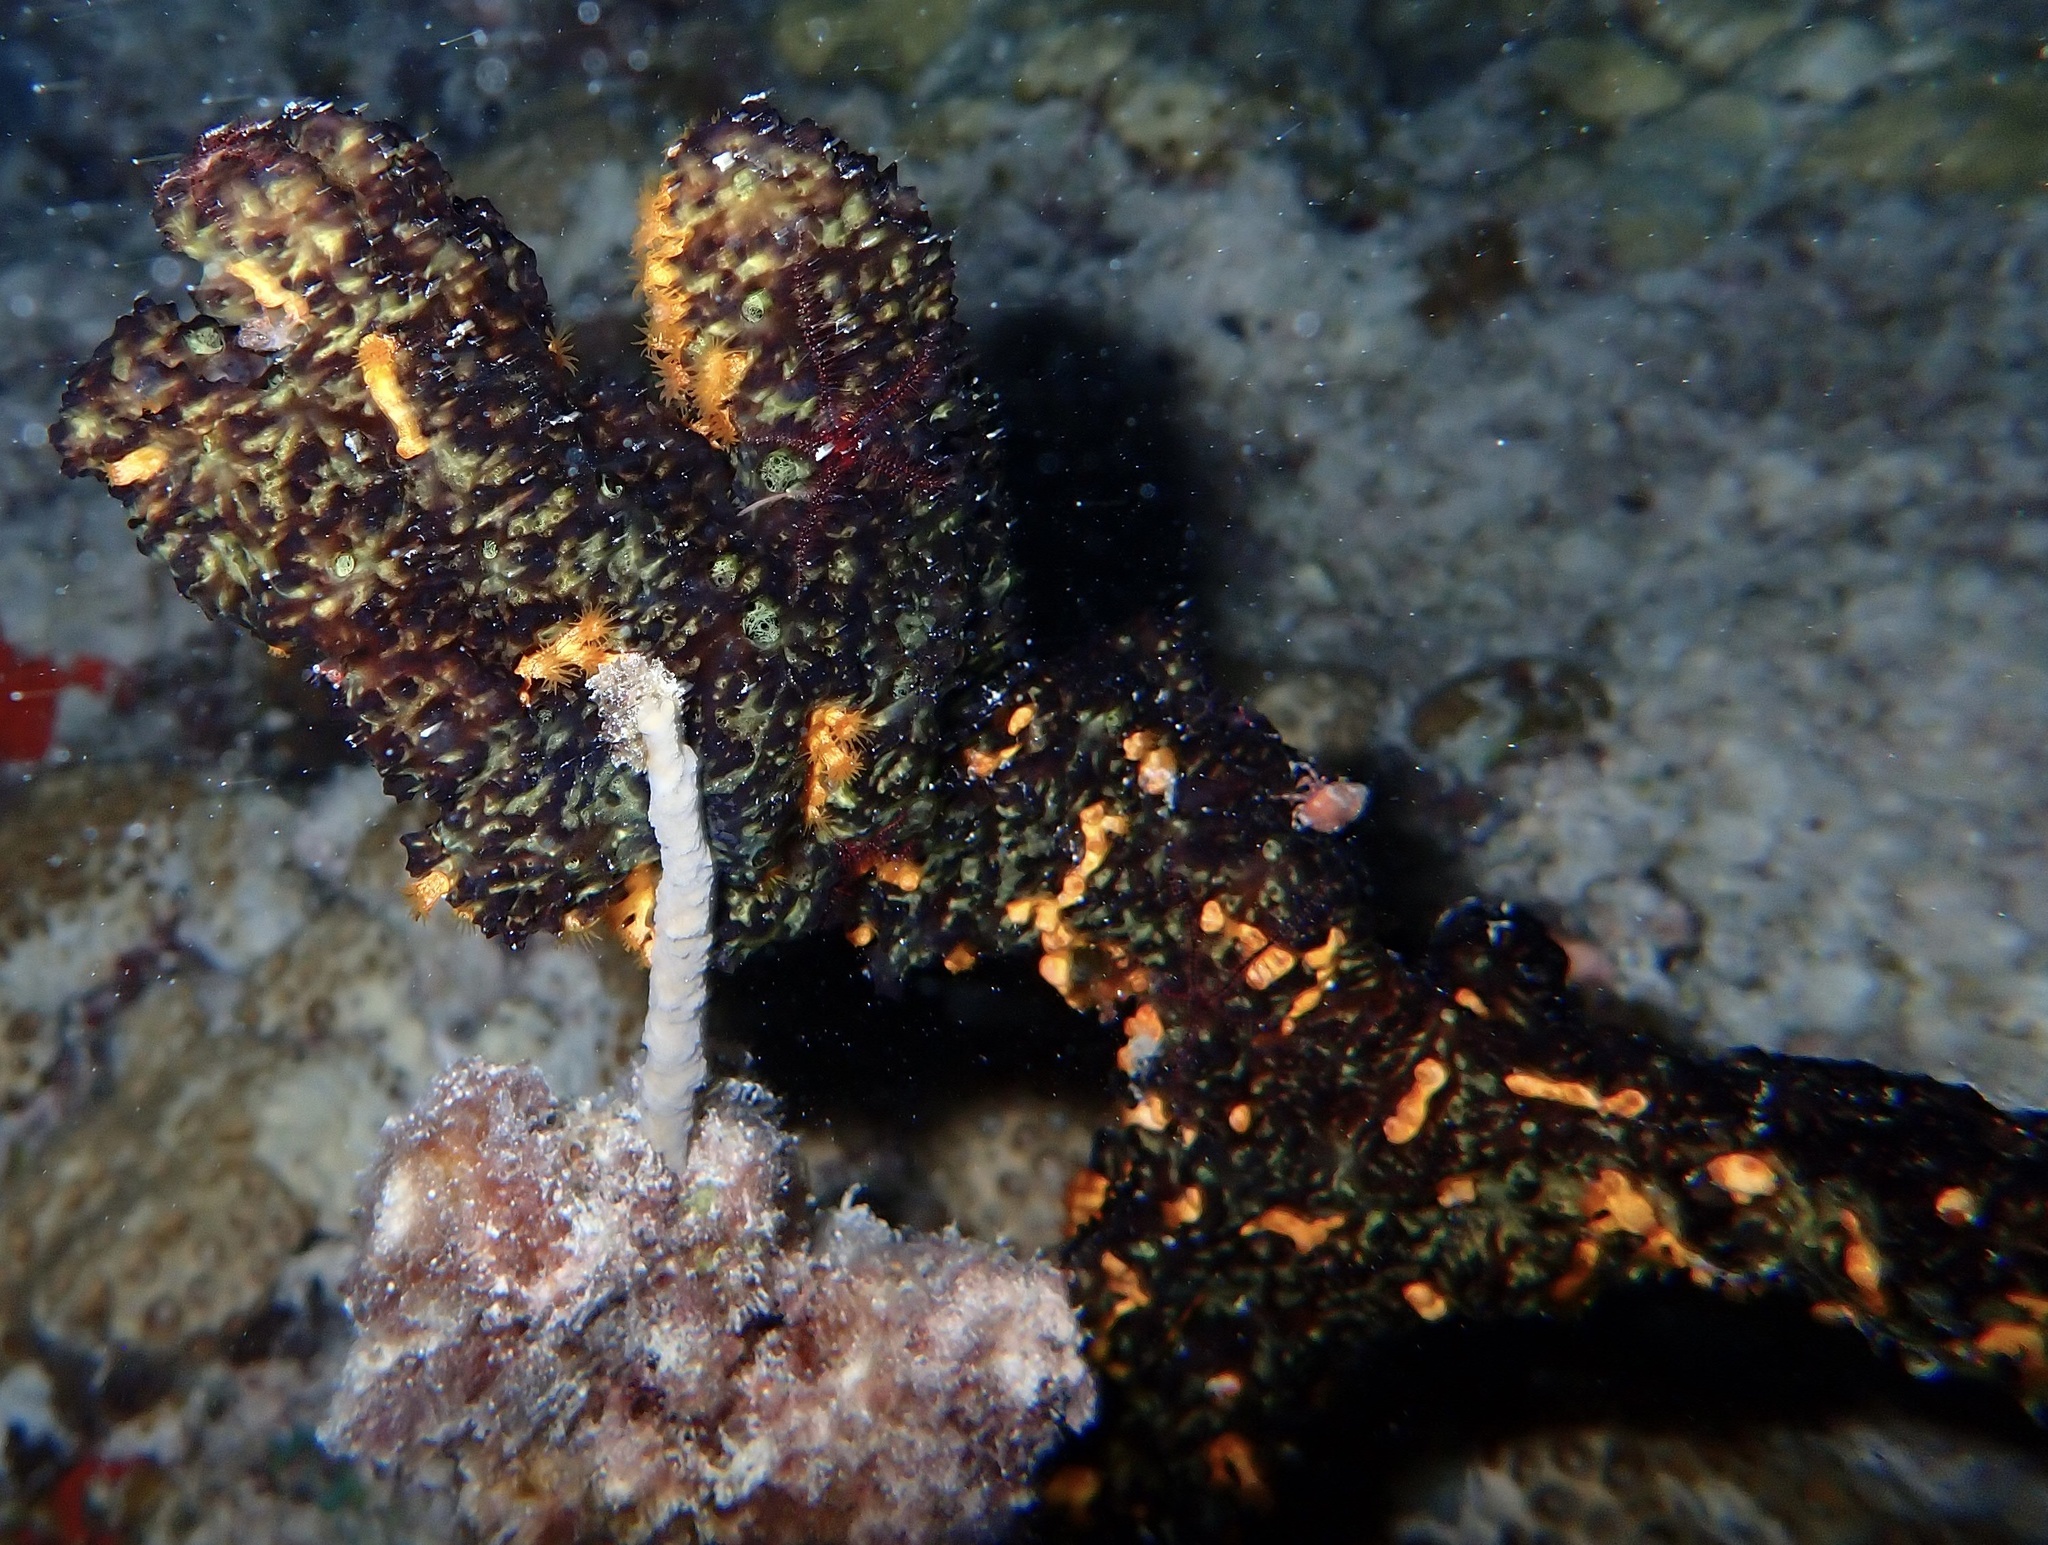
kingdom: Animalia
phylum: Cnidaria
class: Anthozoa
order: Zoantharia
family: Parazoanthidae
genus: Parazoanthus
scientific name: Parazoanthus swiftii
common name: Golden zoanthid
